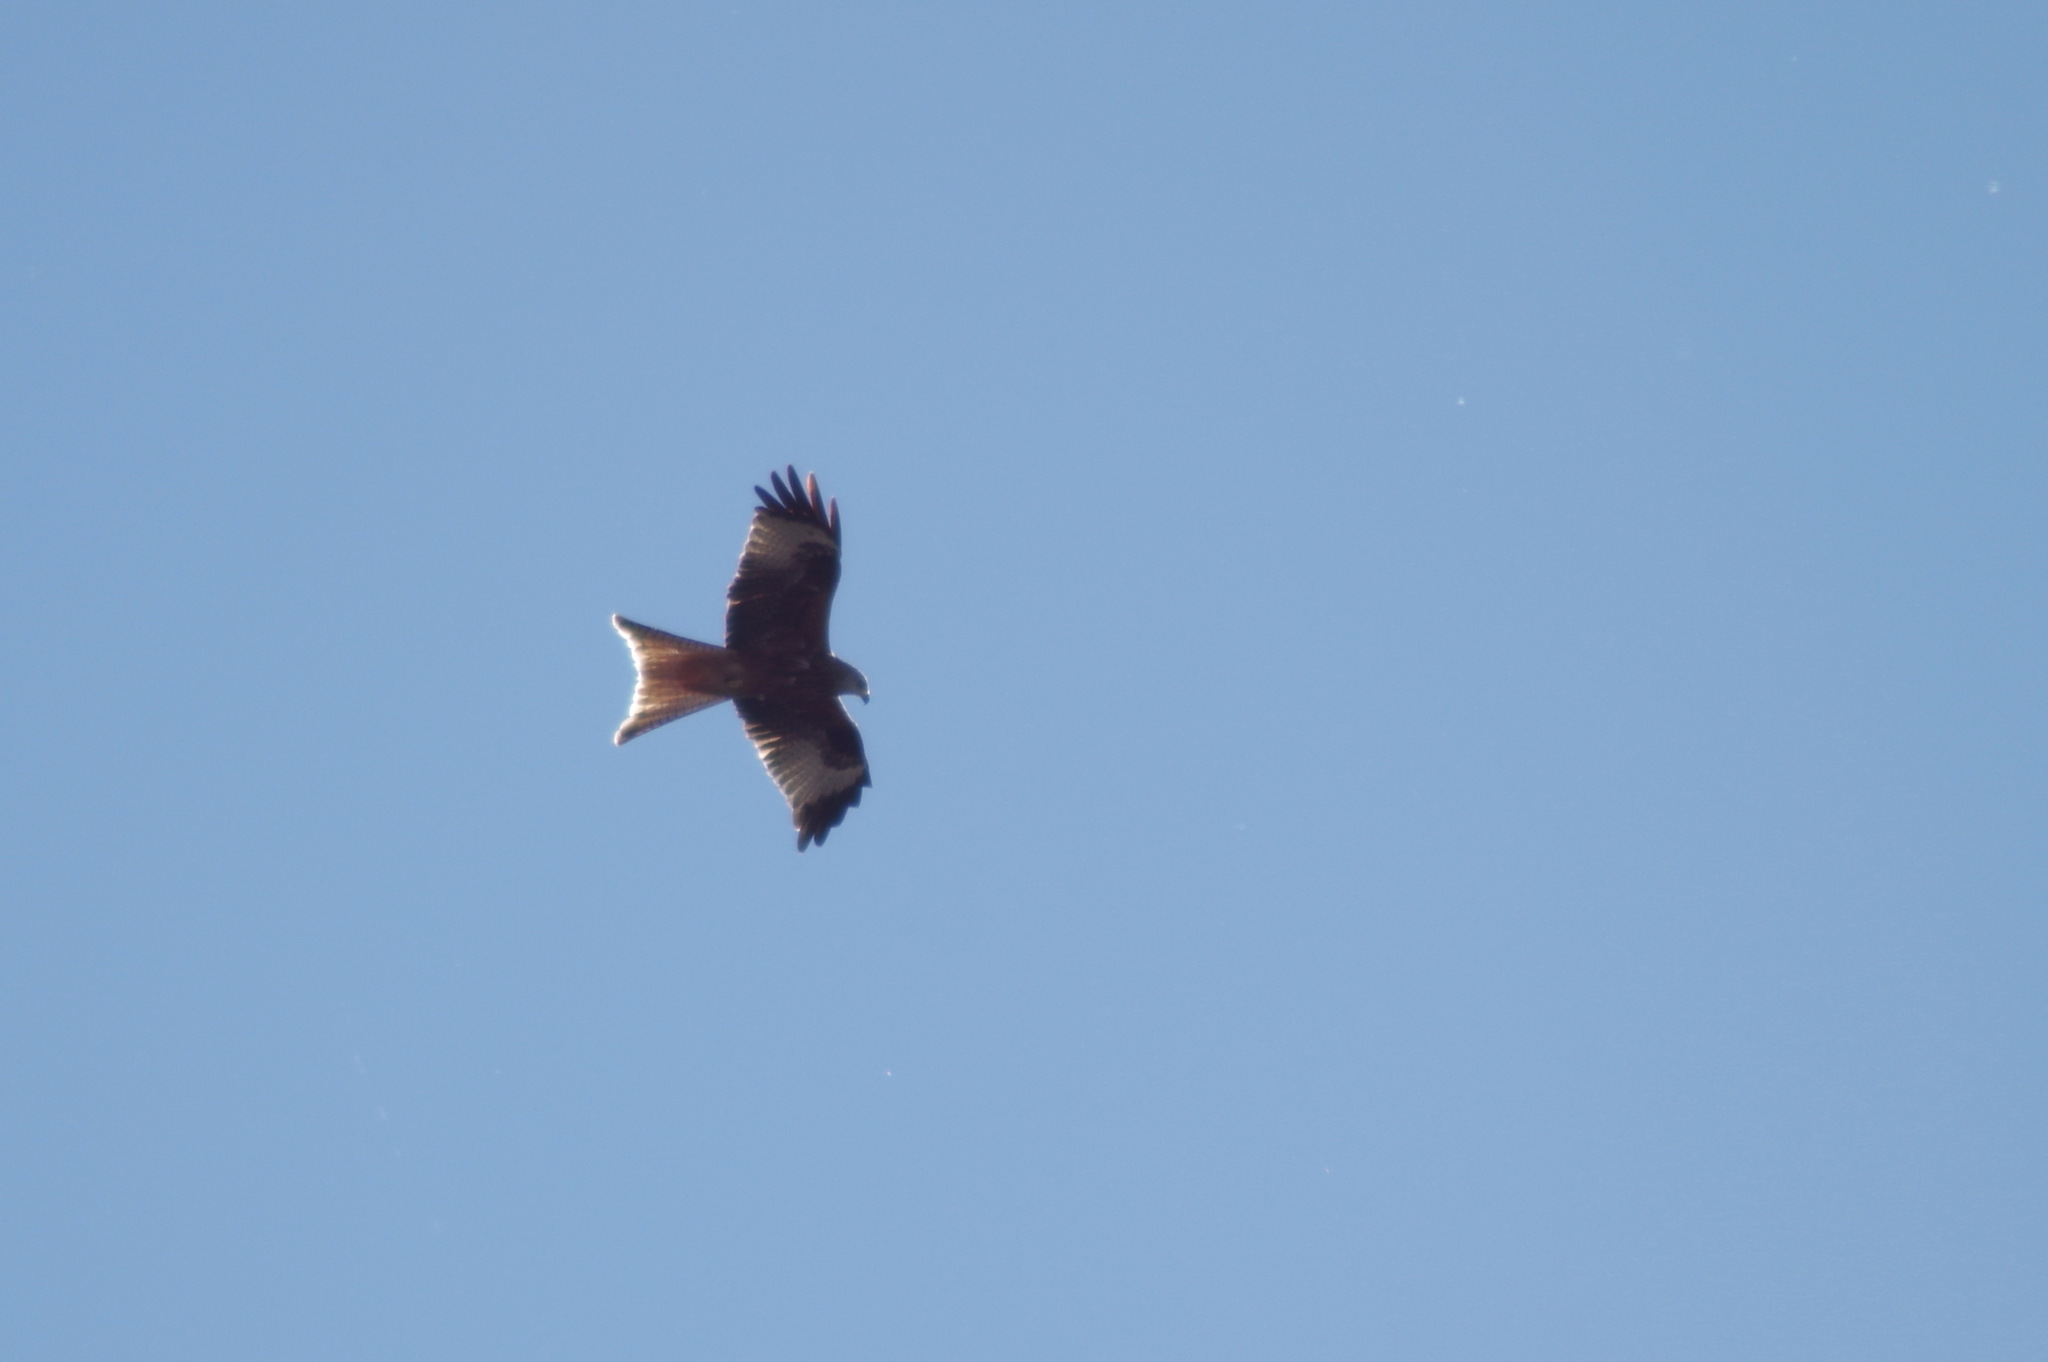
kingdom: Animalia
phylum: Chordata
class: Aves
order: Accipitriformes
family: Accipitridae
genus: Milvus
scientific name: Milvus milvus
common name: Red kite
